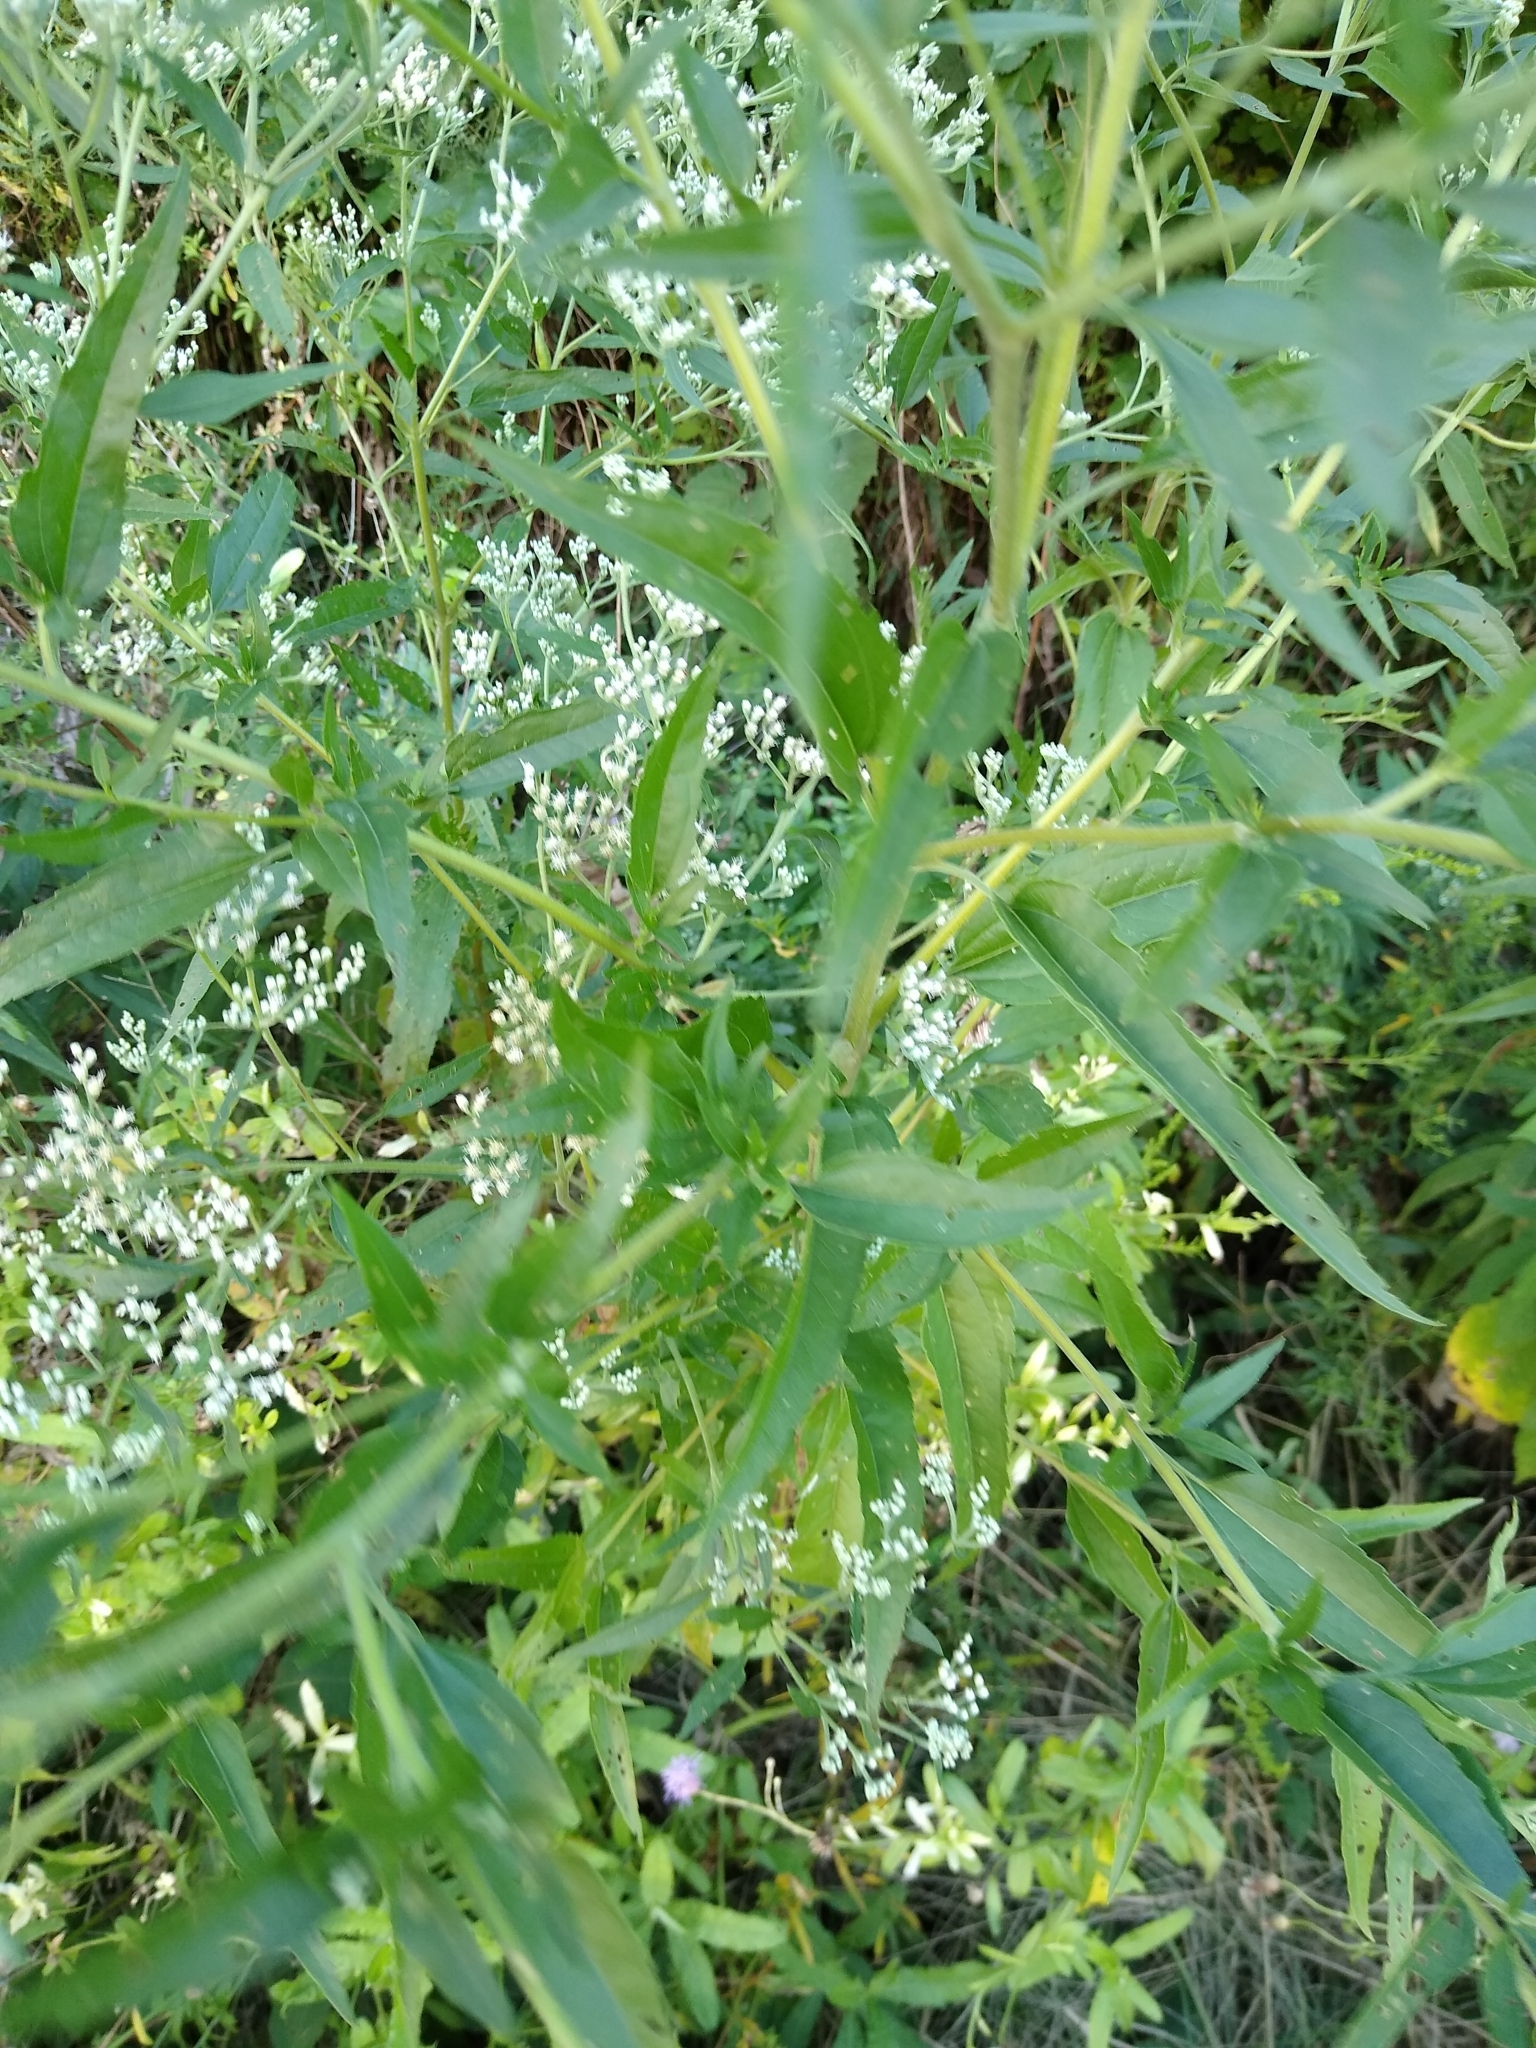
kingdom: Plantae
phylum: Tracheophyta
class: Magnoliopsida
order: Asterales
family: Asteraceae
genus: Eupatorium
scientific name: Eupatorium serotinum
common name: Late boneset
